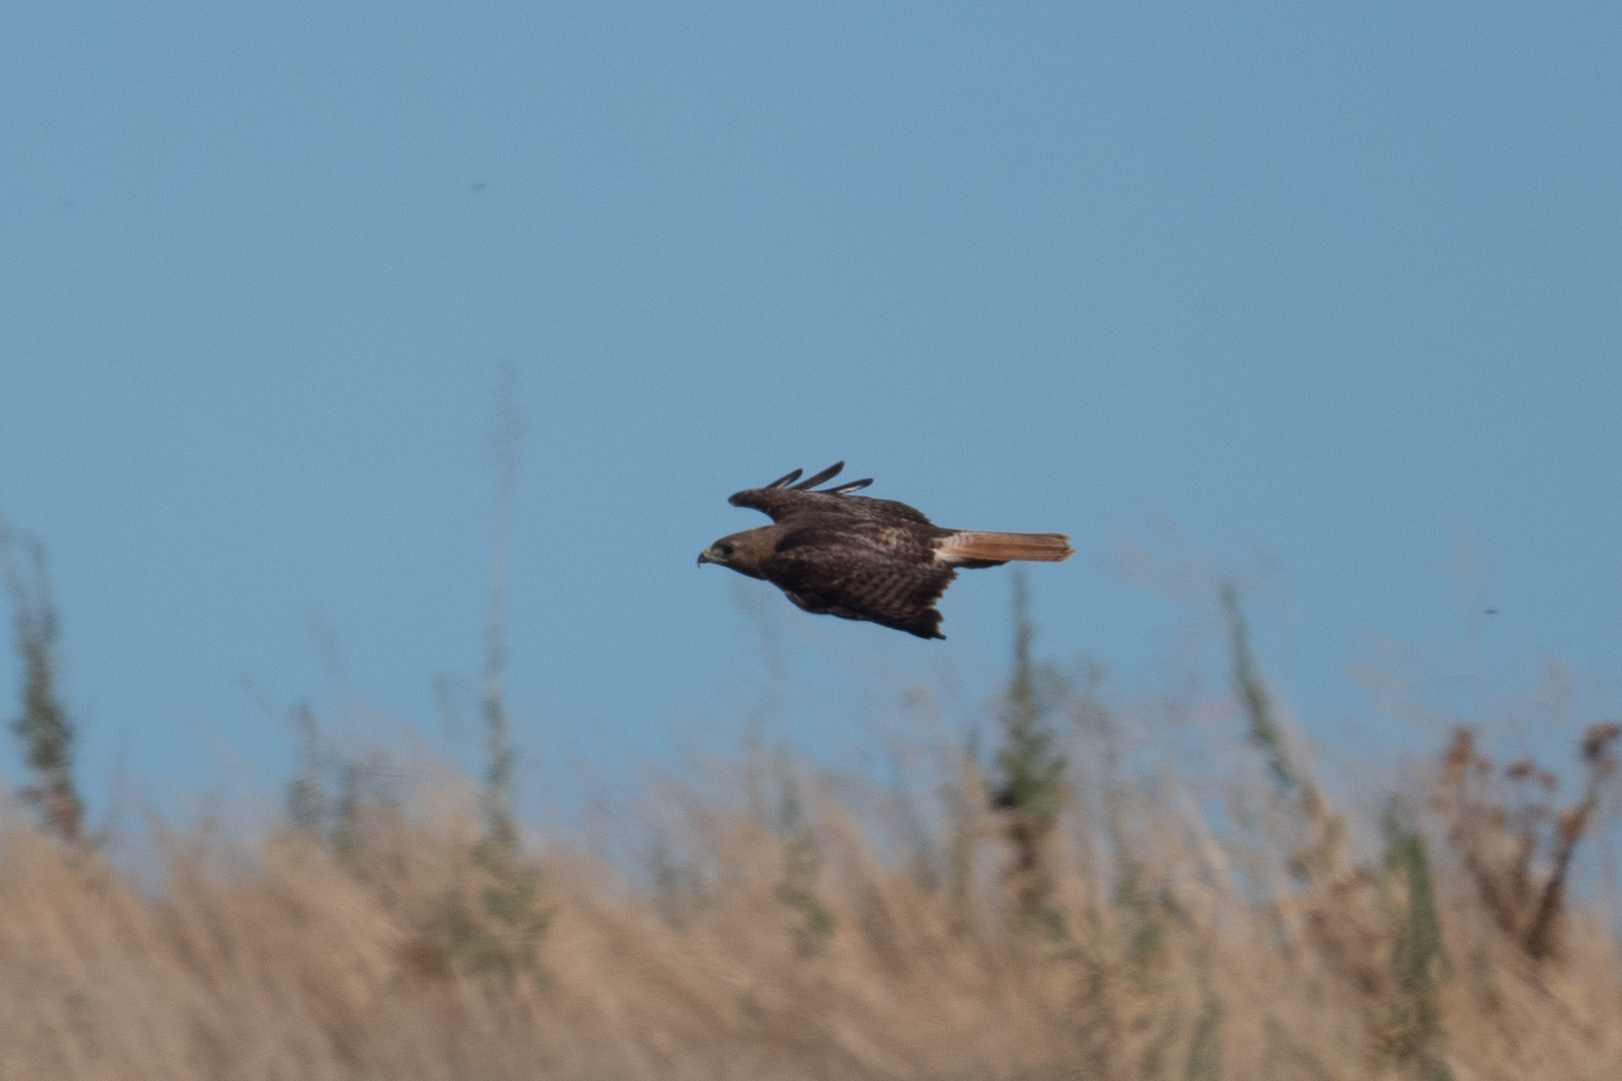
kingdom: Animalia
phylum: Chordata
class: Aves
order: Accipitriformes
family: Accipitridae
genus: Buteo
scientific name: Buteo jamaicensis
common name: Red-tailed hawk
